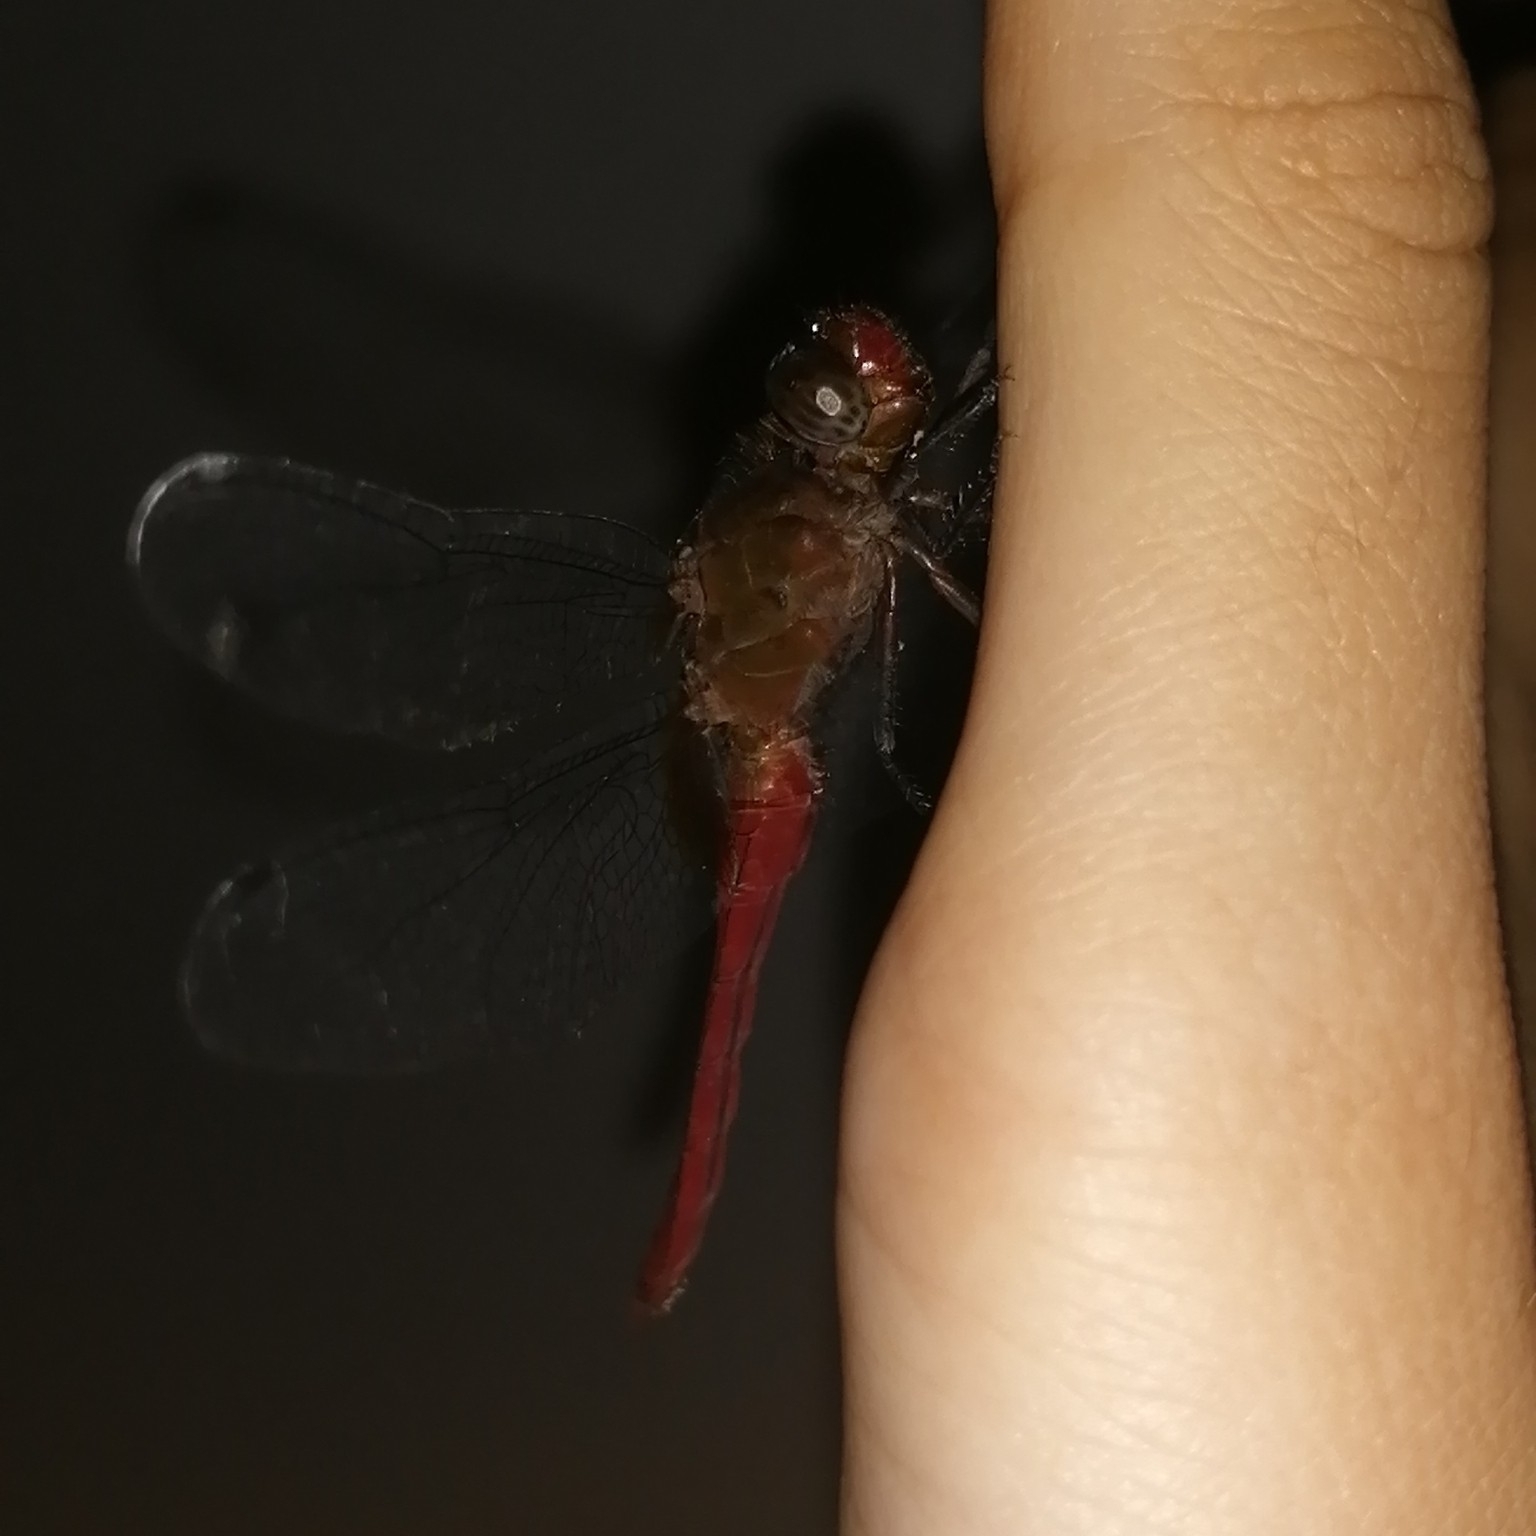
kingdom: Animalia
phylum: Arthropoda
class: Insecta
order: Odonata
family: Libellulidae
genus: Orthetrum
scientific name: Orthetrum chrysis
